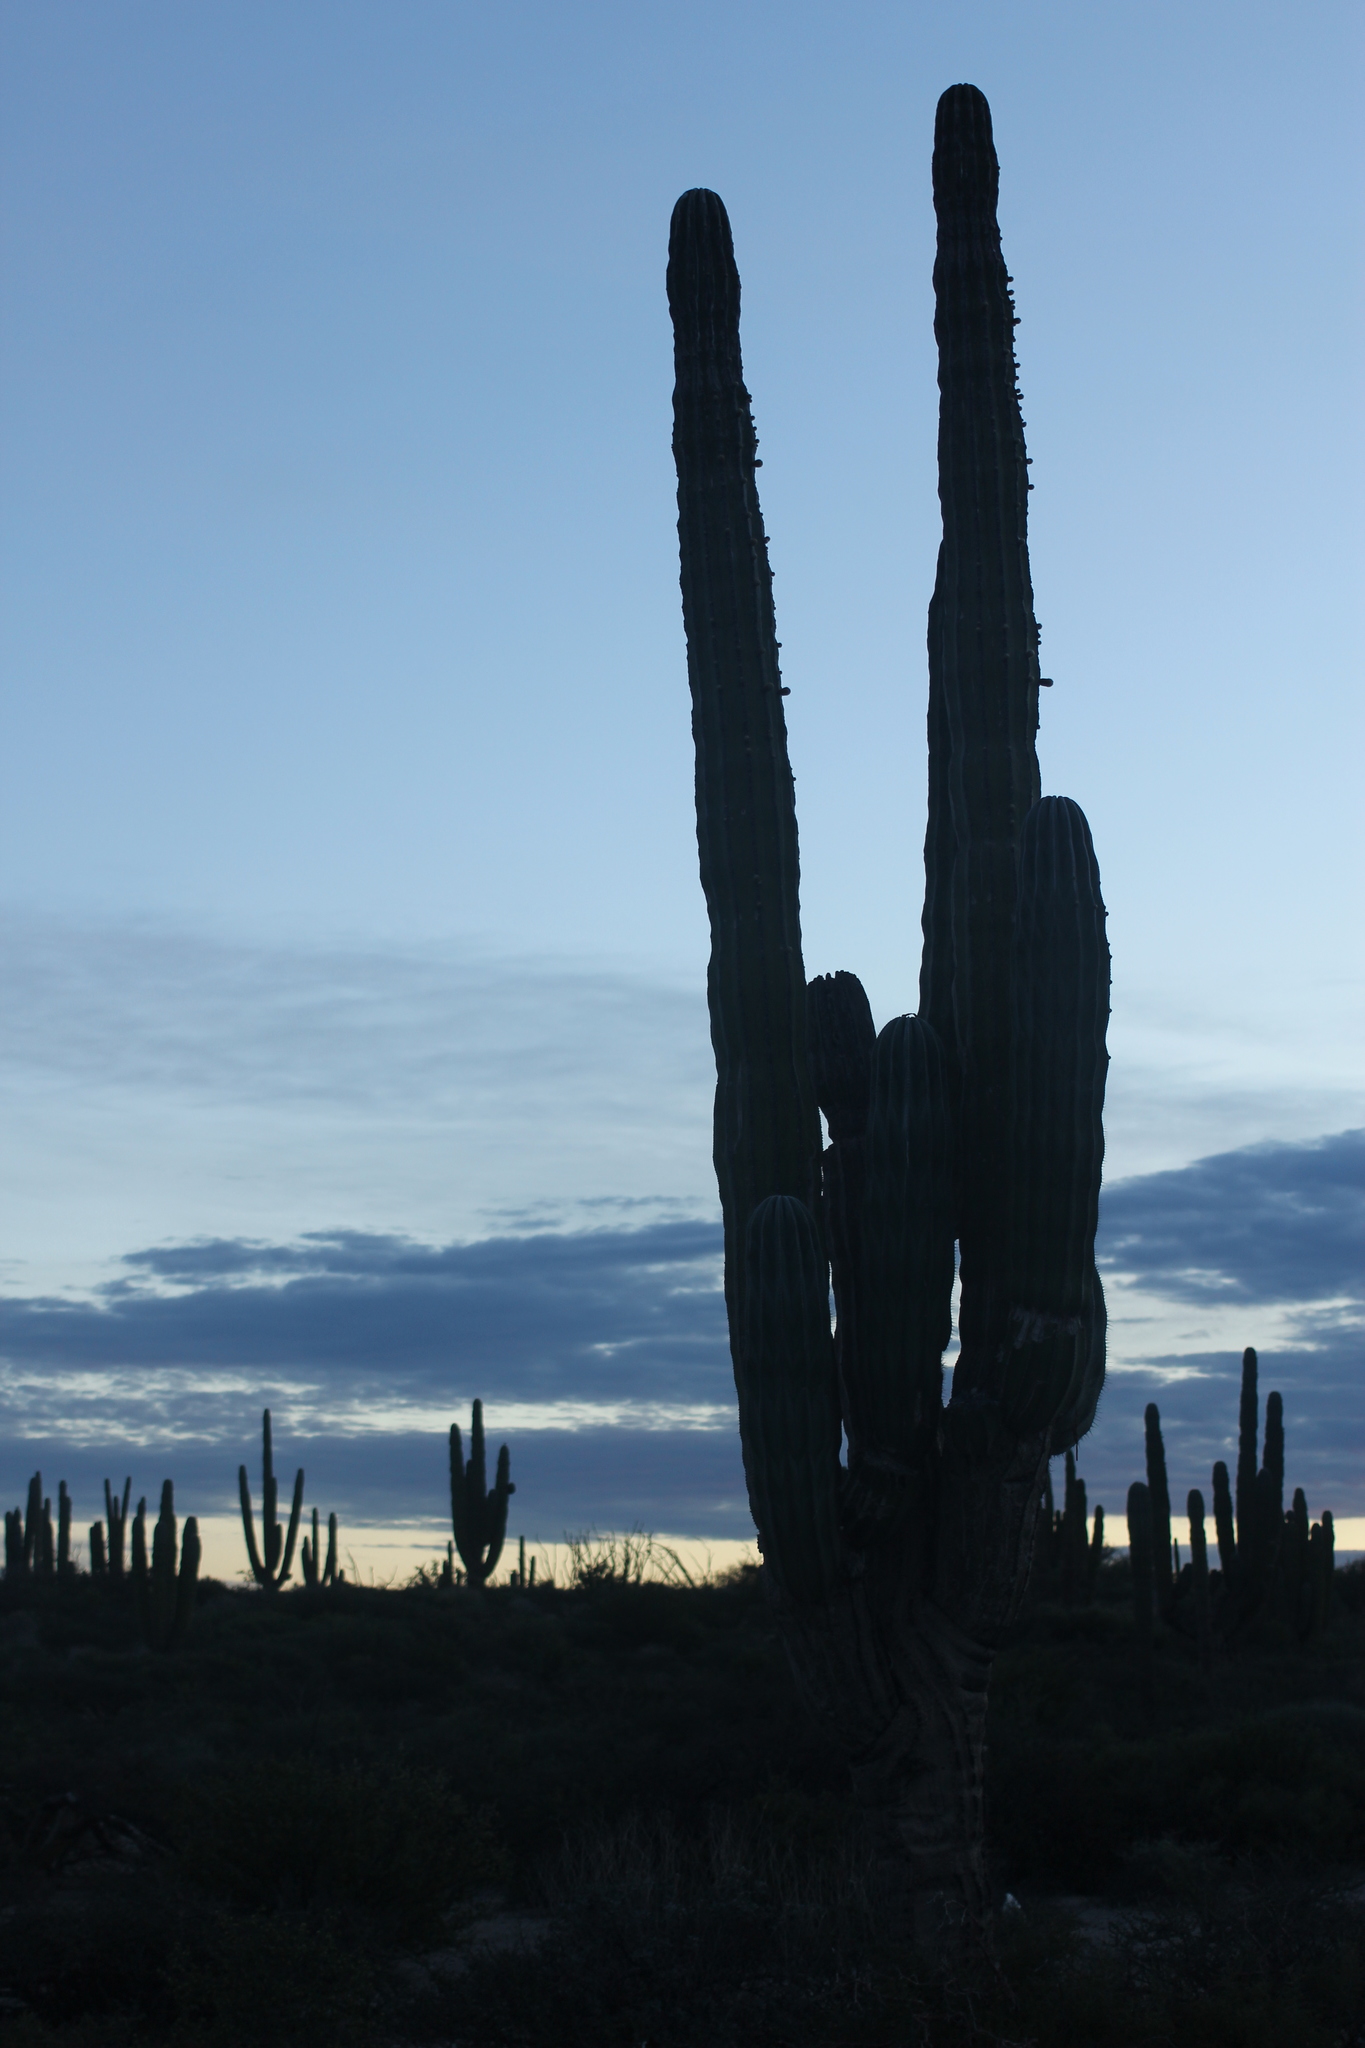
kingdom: Plantae
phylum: Tracheophyta
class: Magnoliopsida
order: Caryophyllales
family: Cactaceae
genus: Pachycereus
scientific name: Pachycereus pringlei
